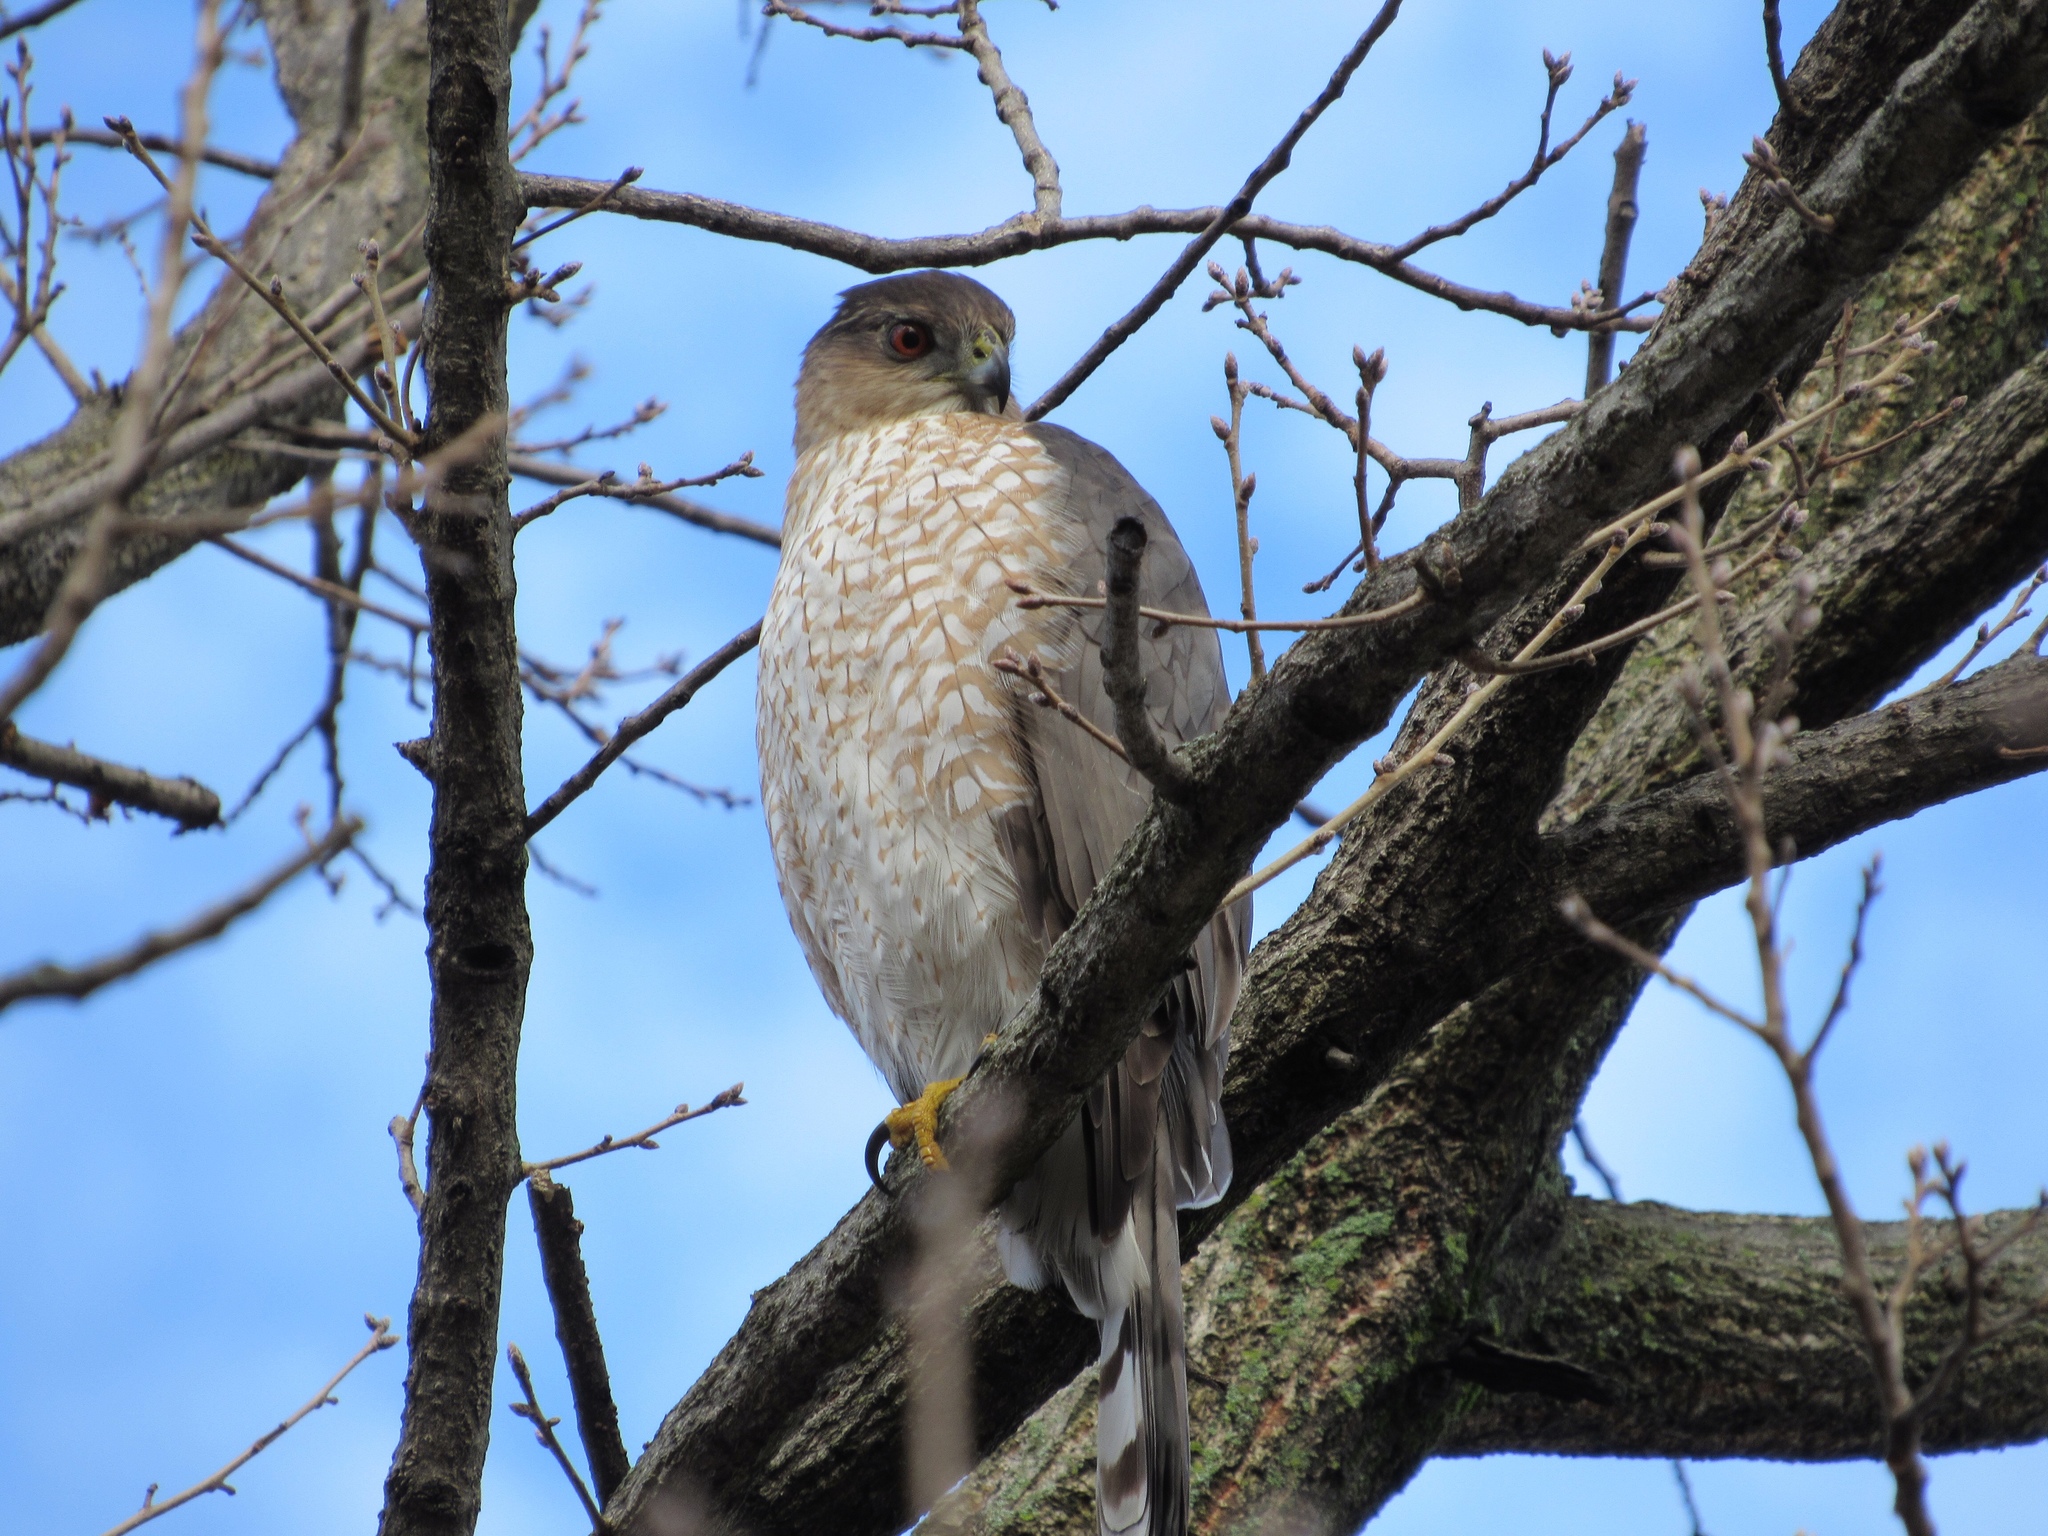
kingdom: Animalia
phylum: Chordata
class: Aves
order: Accipitriformes
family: Accipitridae
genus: Accipiter
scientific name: Accipiter cooperii
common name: Cooper's hawk
